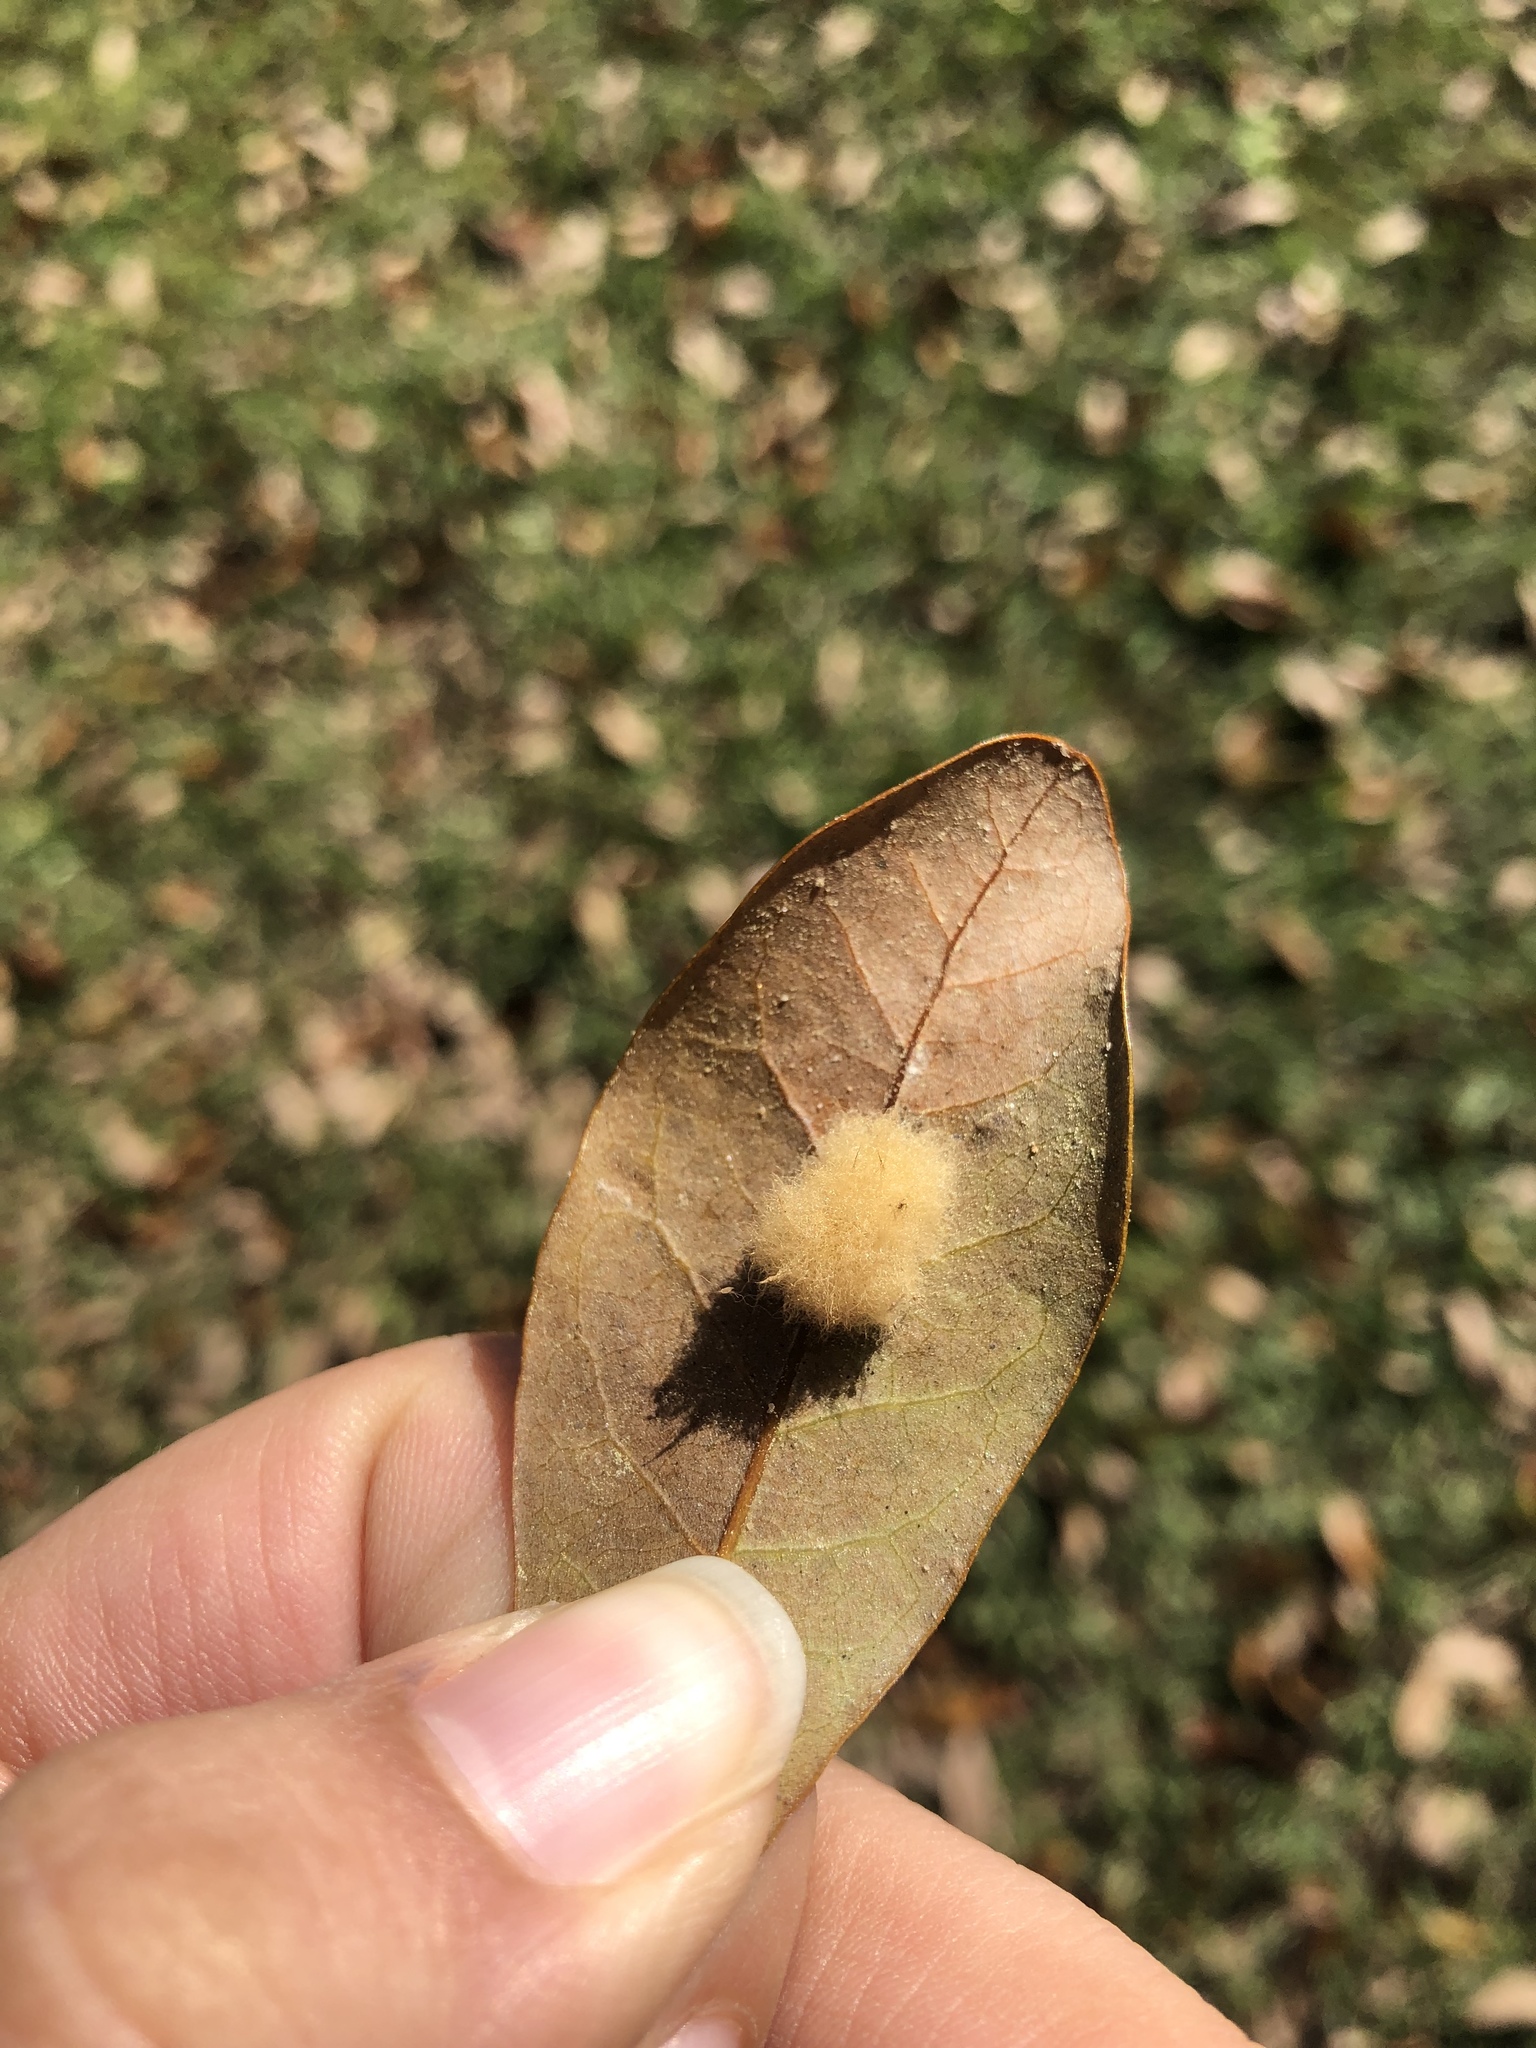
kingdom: Animalia
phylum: Arthropoda
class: Insecta
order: Hymenoptera
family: Cynipidae
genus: Andricus
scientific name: Andricus Druon quercuslanigerum
